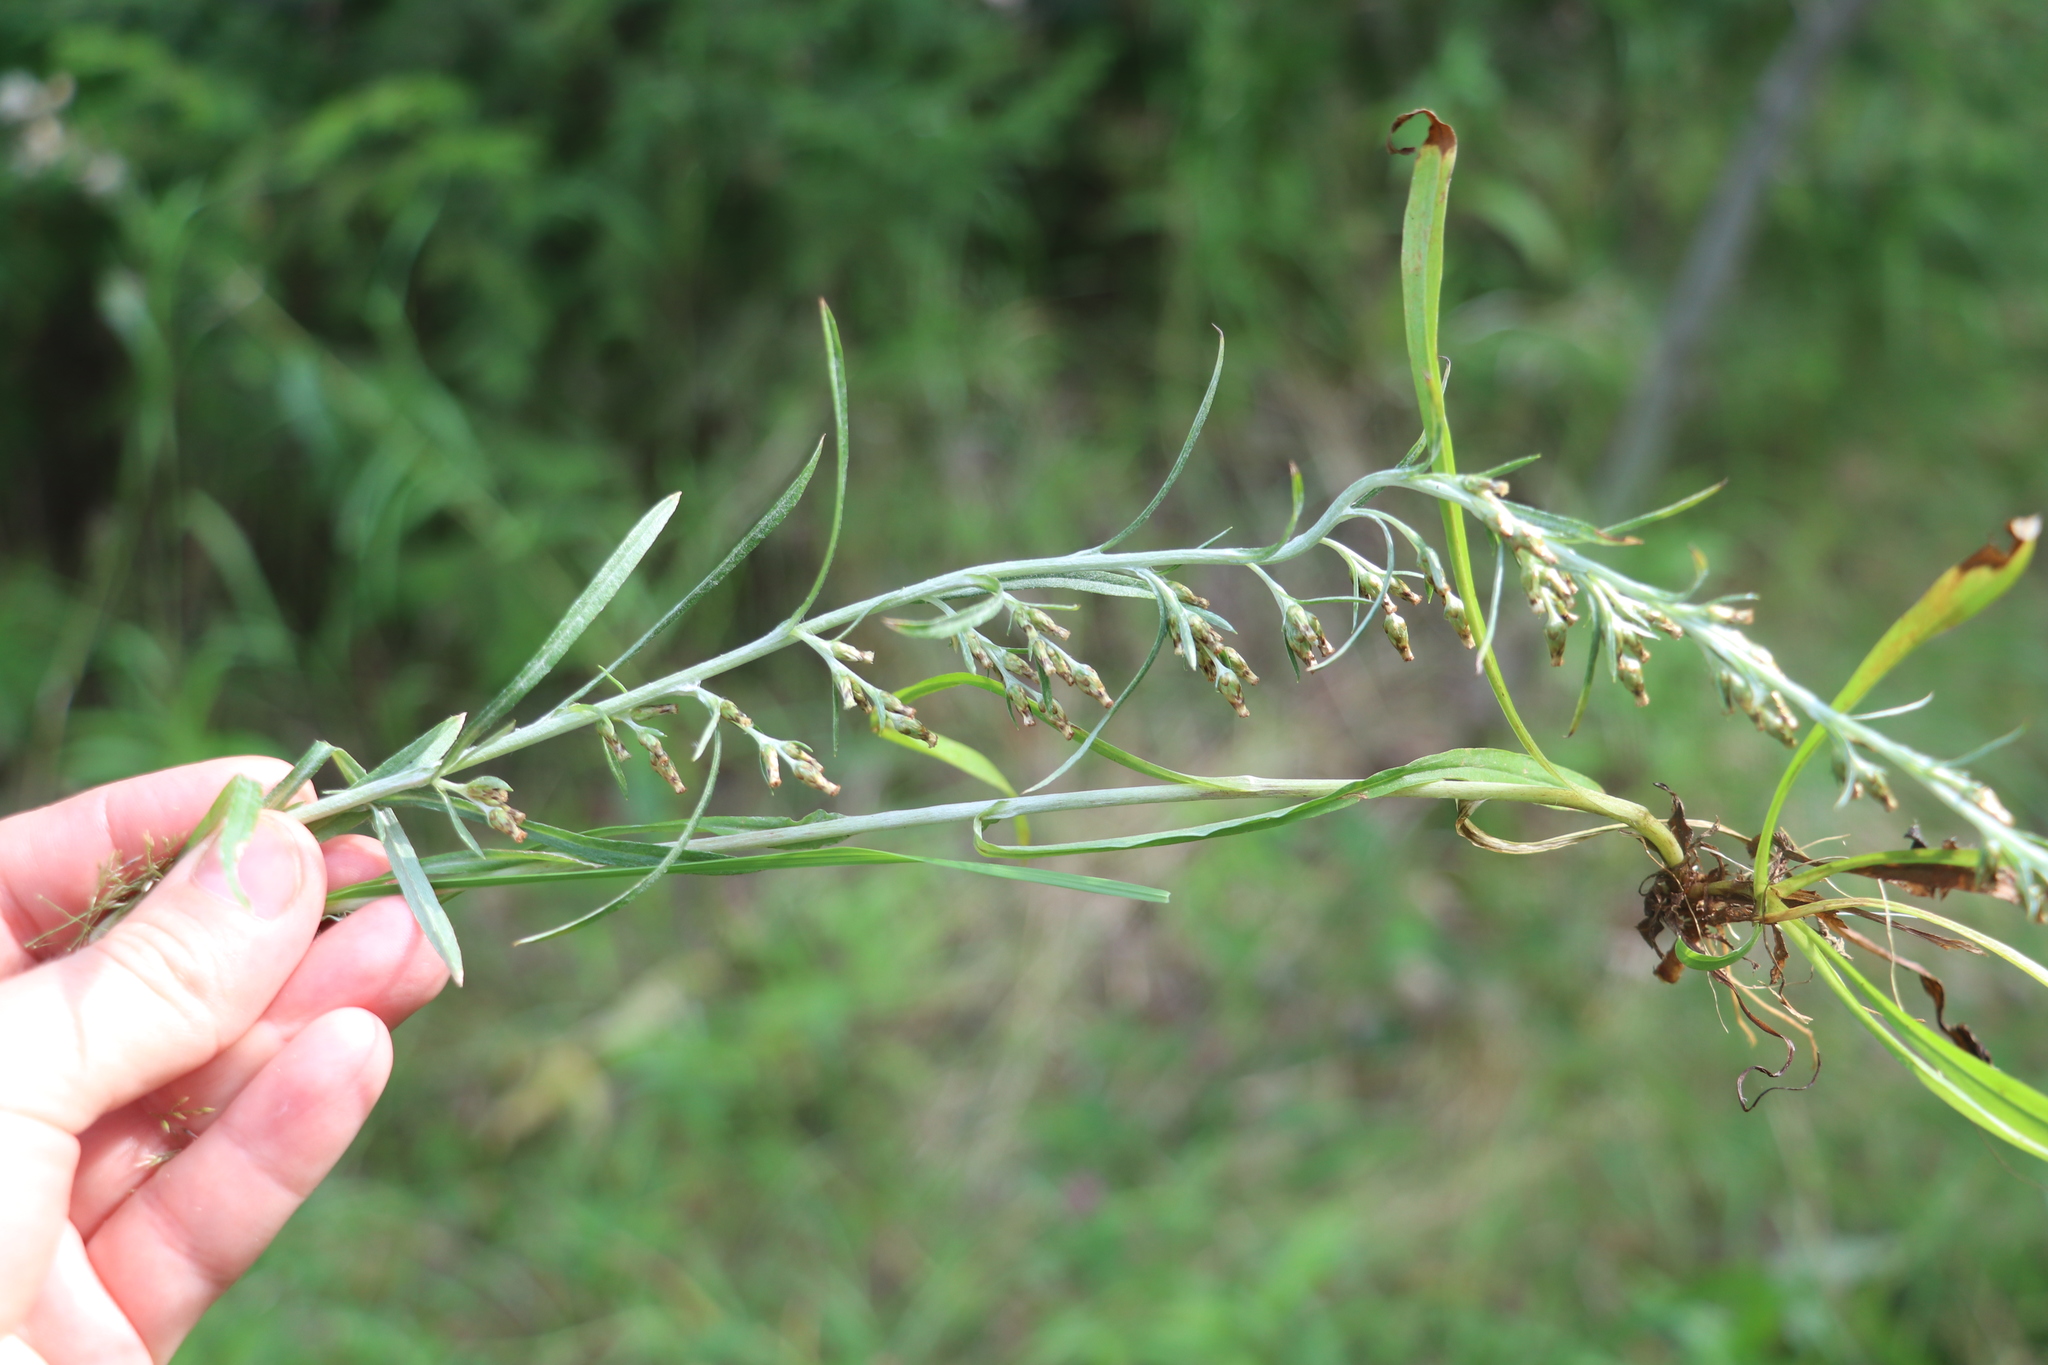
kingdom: Plantae
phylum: Tracheophyta
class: Magnoliopsida
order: Asterales
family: Asteraceae
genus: Omalotheca
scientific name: Omalotheca sylvatica
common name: Heath cudweed
